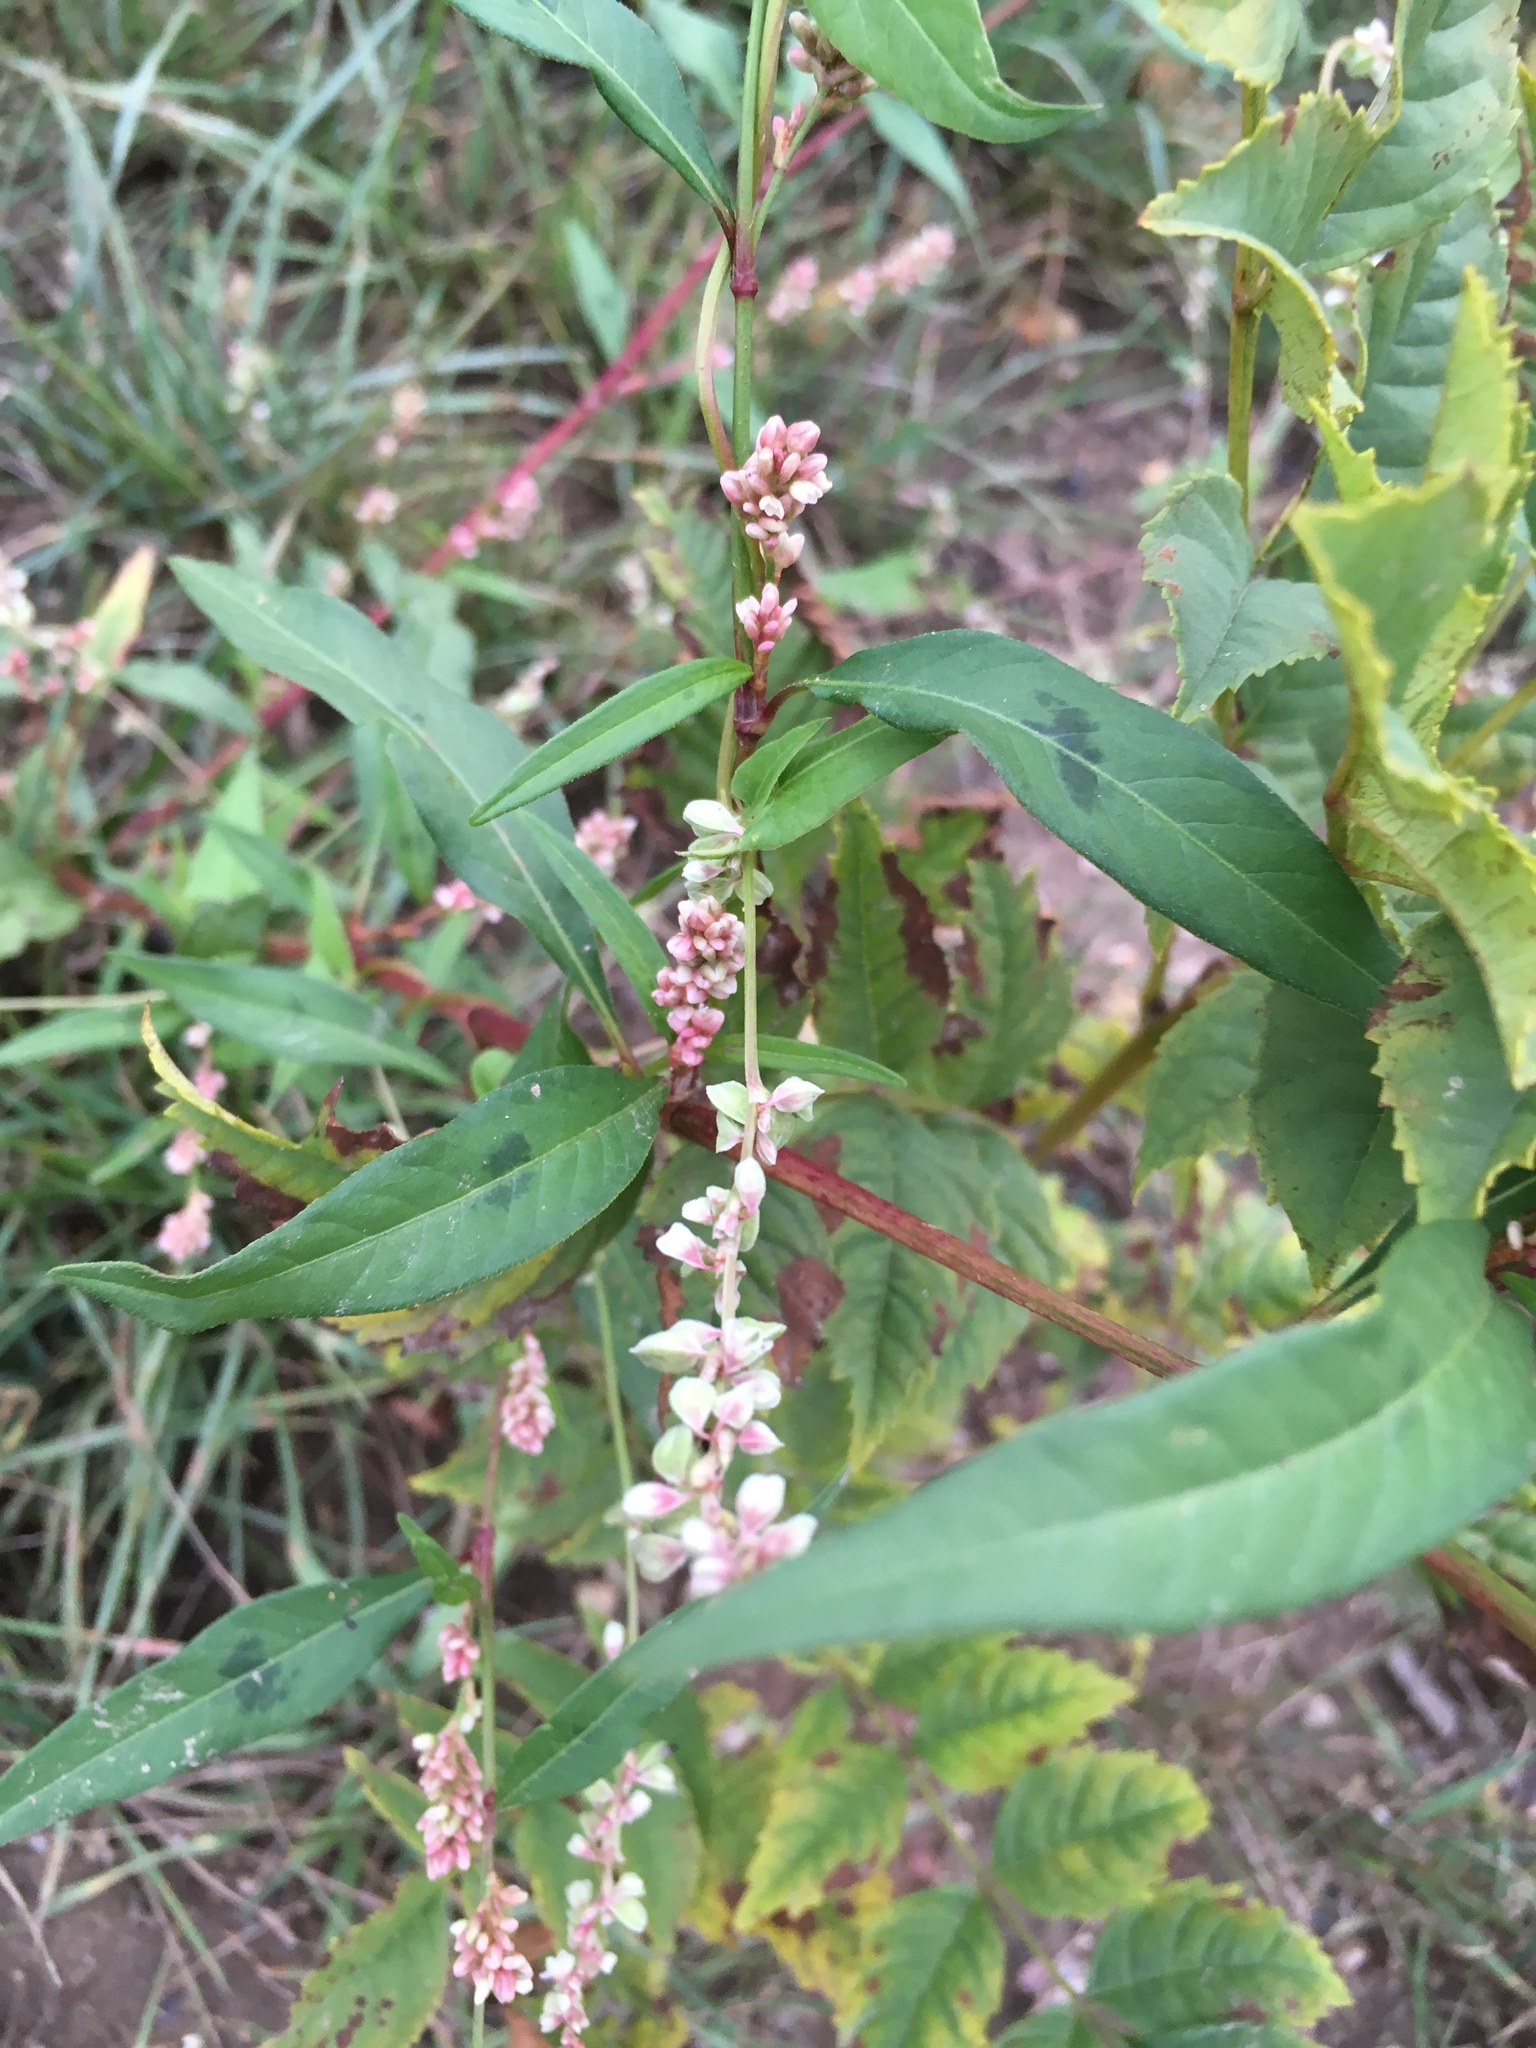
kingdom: Plantae
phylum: Tracheophyta
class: Magnoliopsida
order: Caryophyllales
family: Polygonaceae
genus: Persicaria
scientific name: Persicaria maculosa
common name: Redshank
